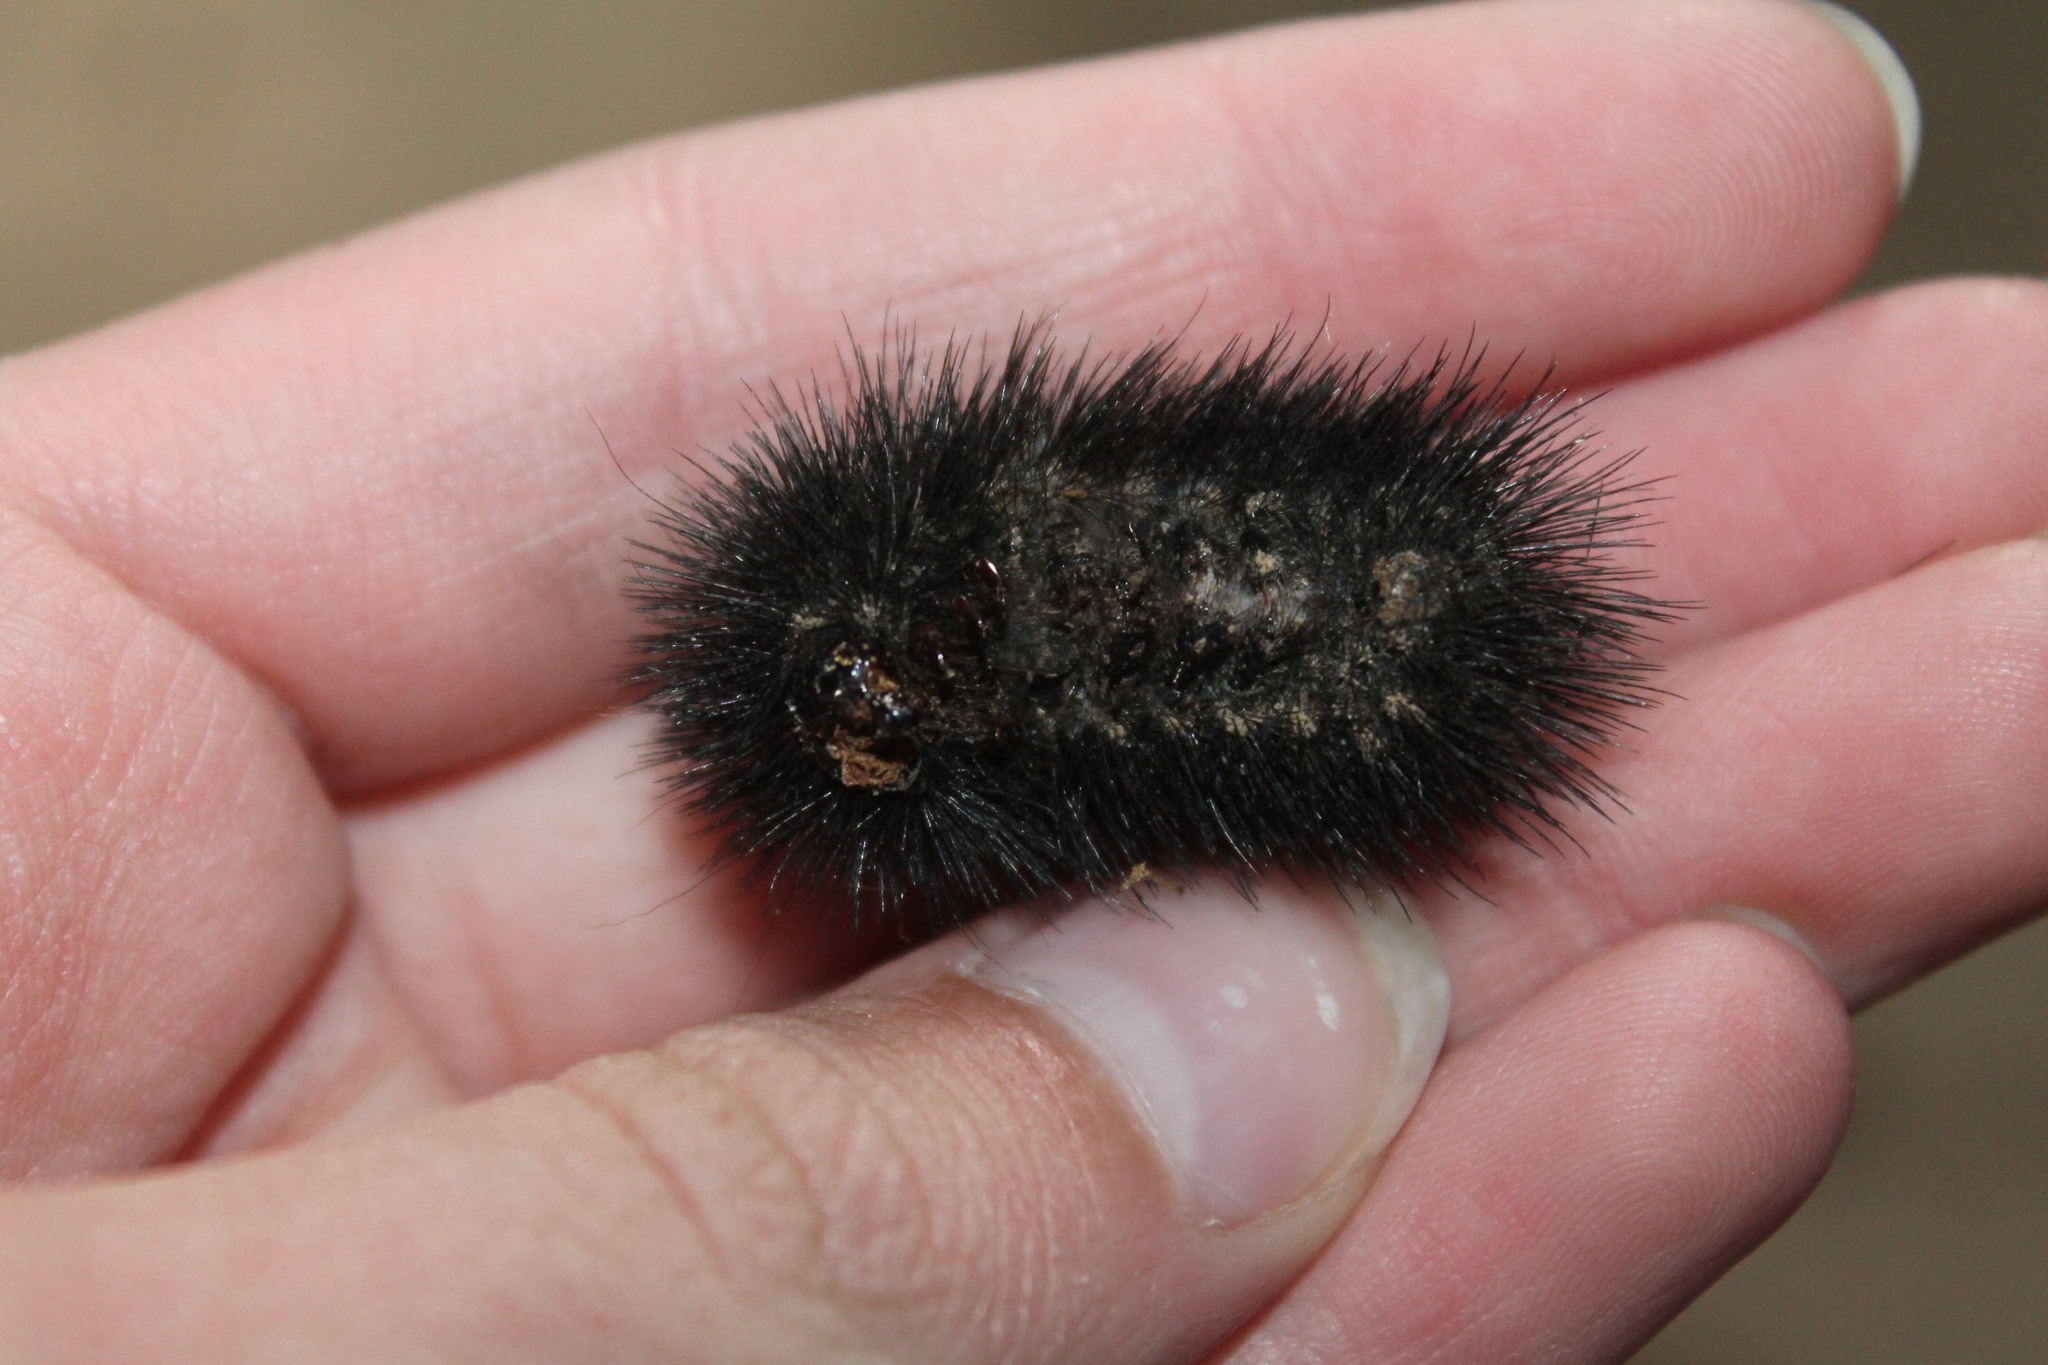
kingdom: Animalia
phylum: Arthropoda
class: Insecta
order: Lepidoptera
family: Erebidae
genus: Hypercompe
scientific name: Hypercompe scribonia
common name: Giant leopard moth
